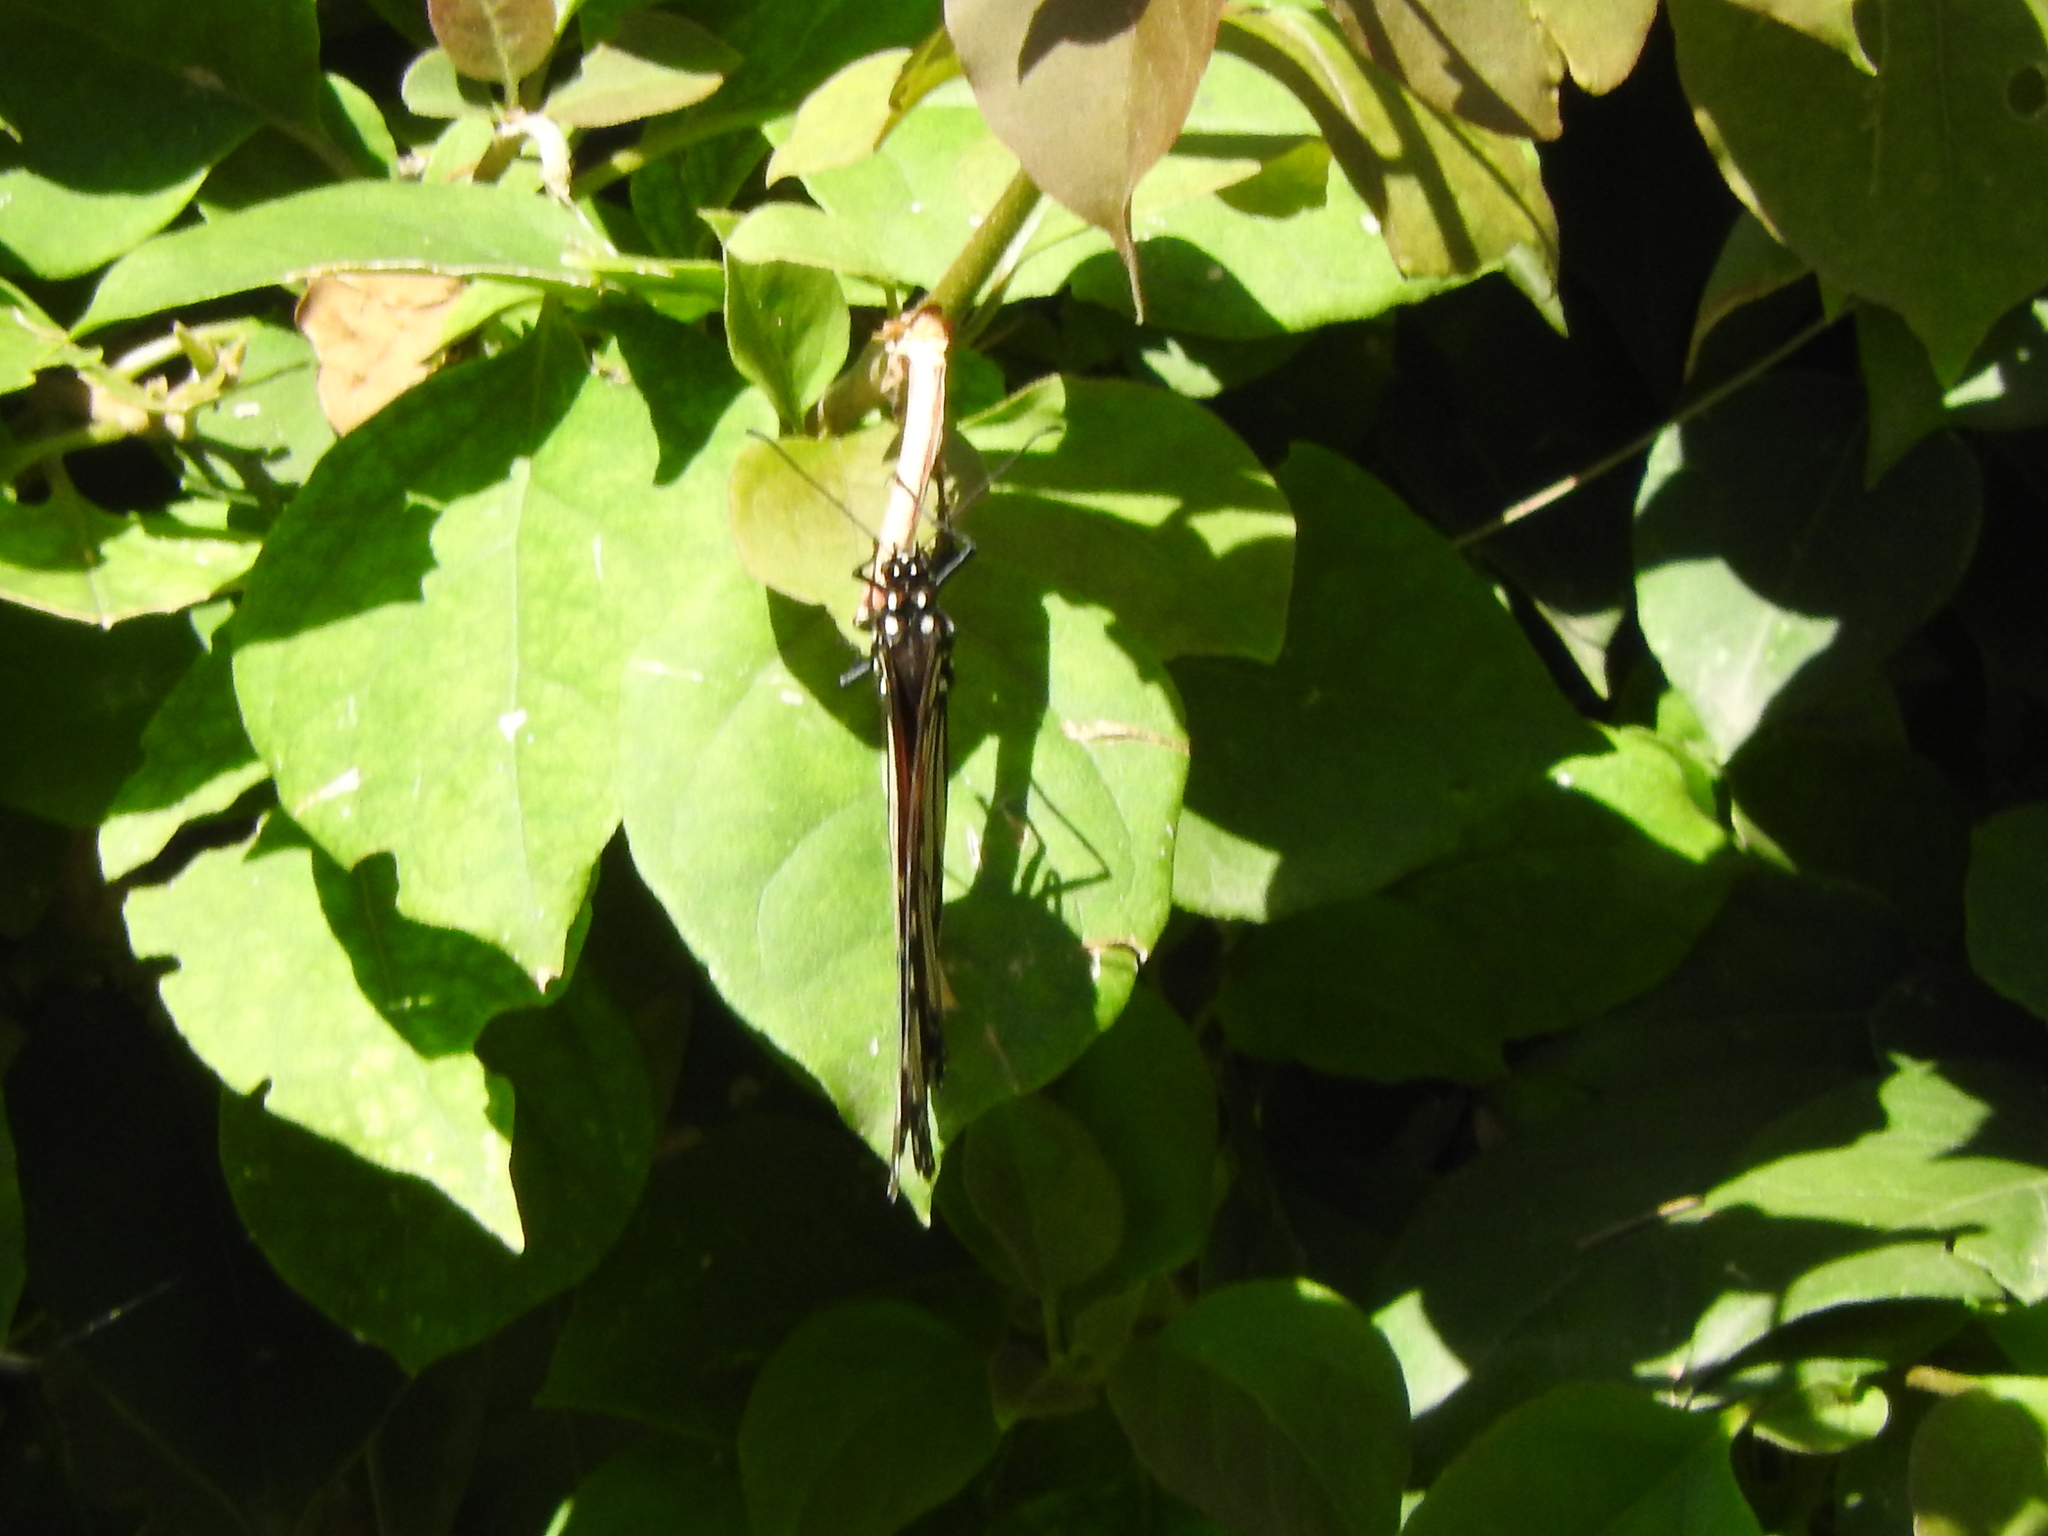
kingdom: Animalia
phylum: Arthropoda
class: Insecta
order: Lepidoptera
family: Nymphalidae
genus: Danaus
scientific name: Danaus plexippus
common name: Monarch
